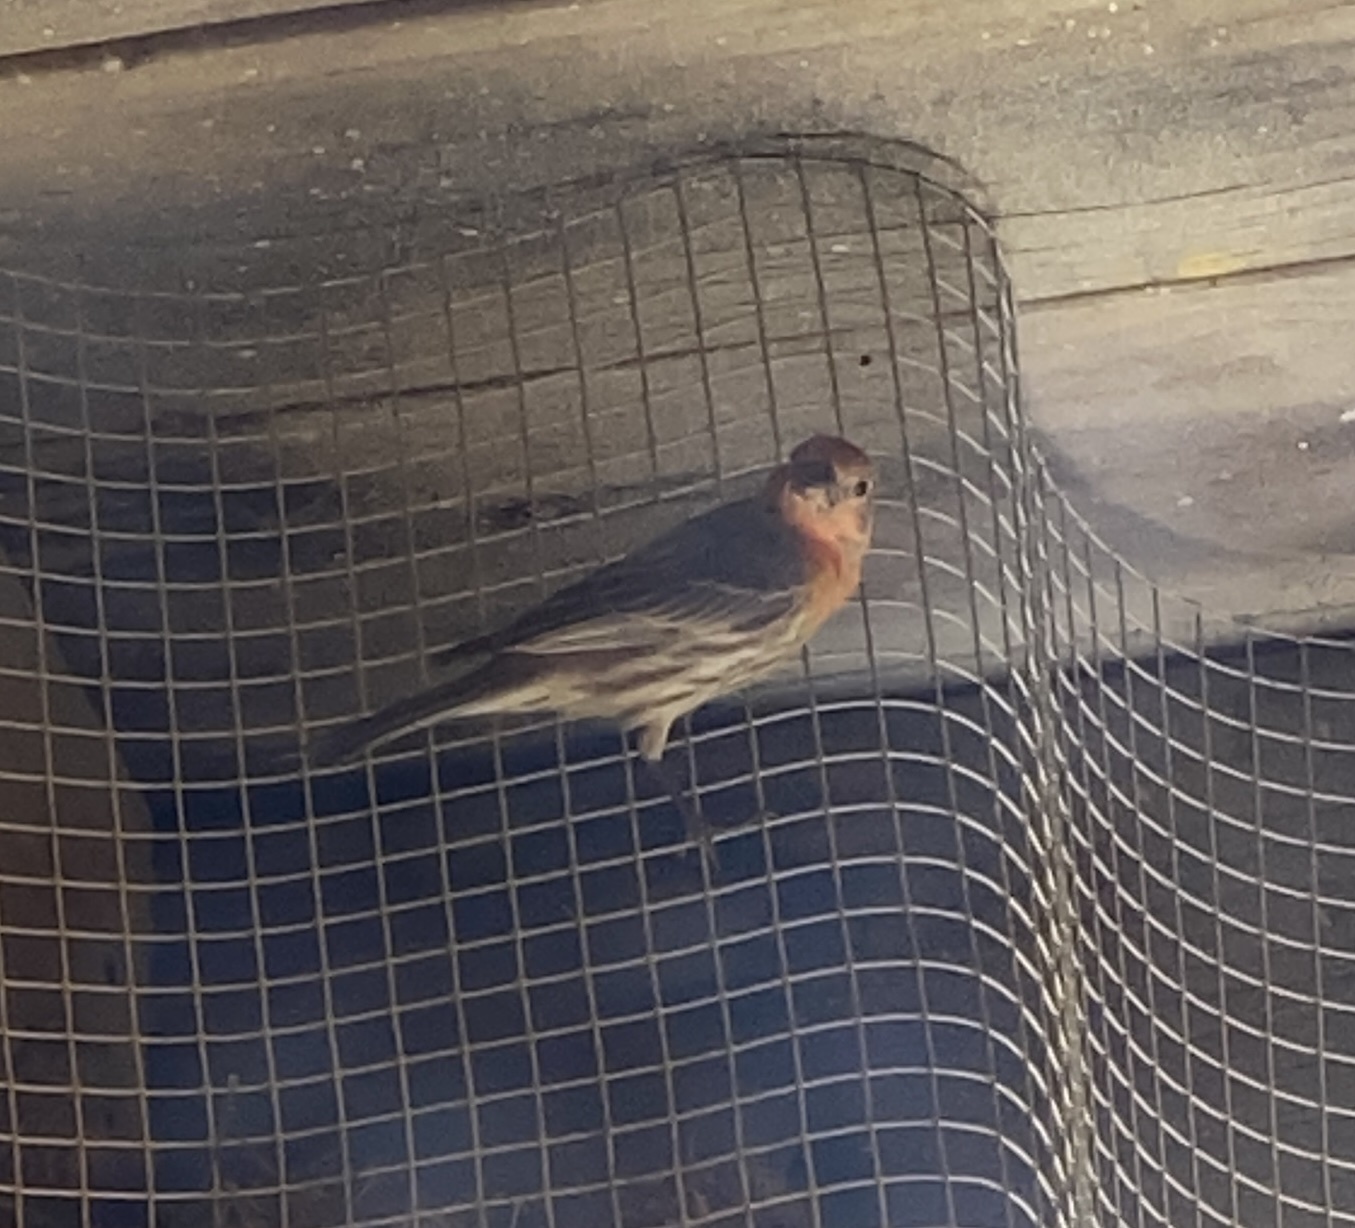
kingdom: Animalia
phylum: Chordata
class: Aves
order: Passeriformes
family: Fringillidae
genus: Haemorhous
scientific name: Haemorhous mexicanus
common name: House finch
